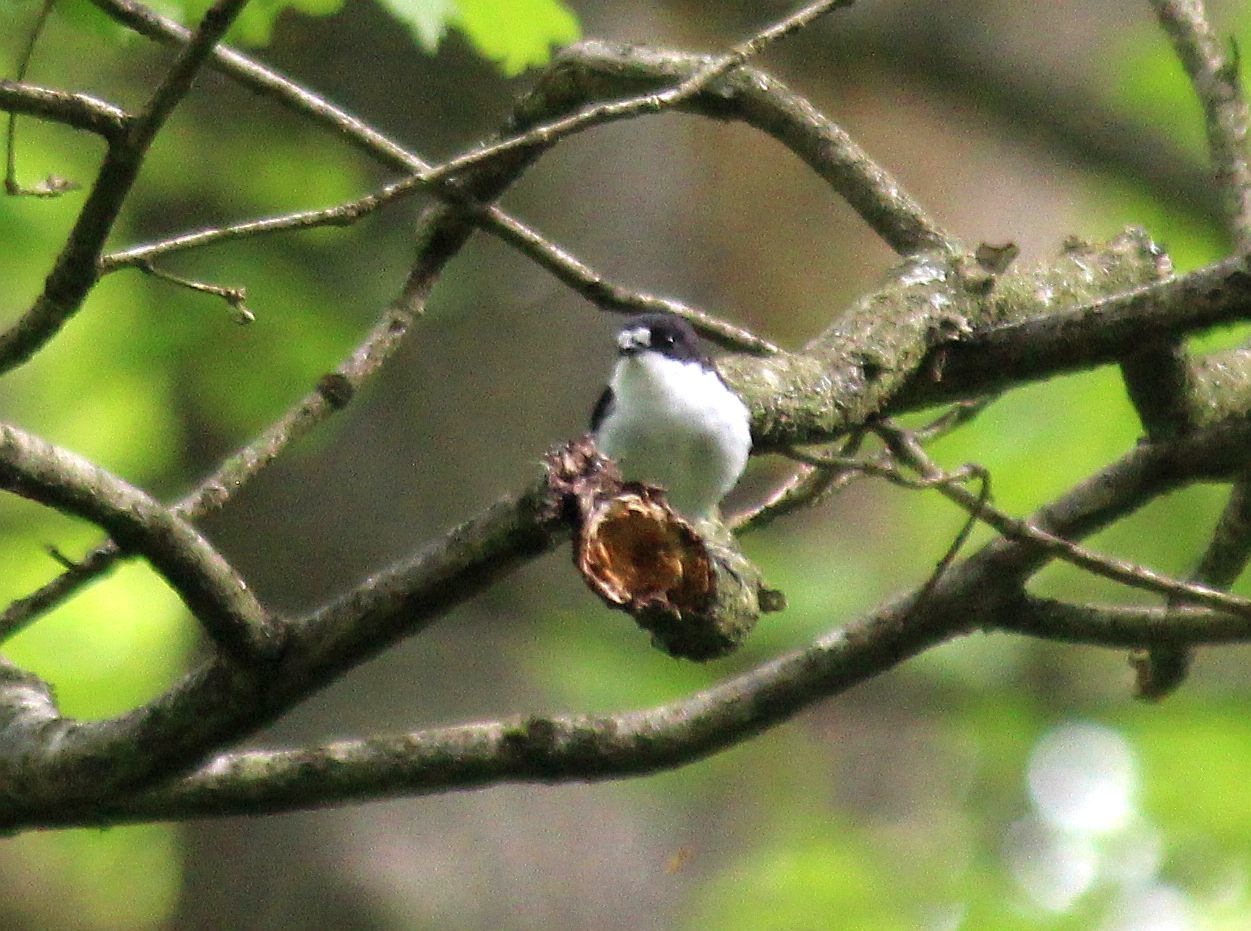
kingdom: Animalia
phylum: Chordata
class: Aves
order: Passeriformes
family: Muscicapidae
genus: Ficedula
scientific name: Ficedula hypoleuca
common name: European pied flycatcher
